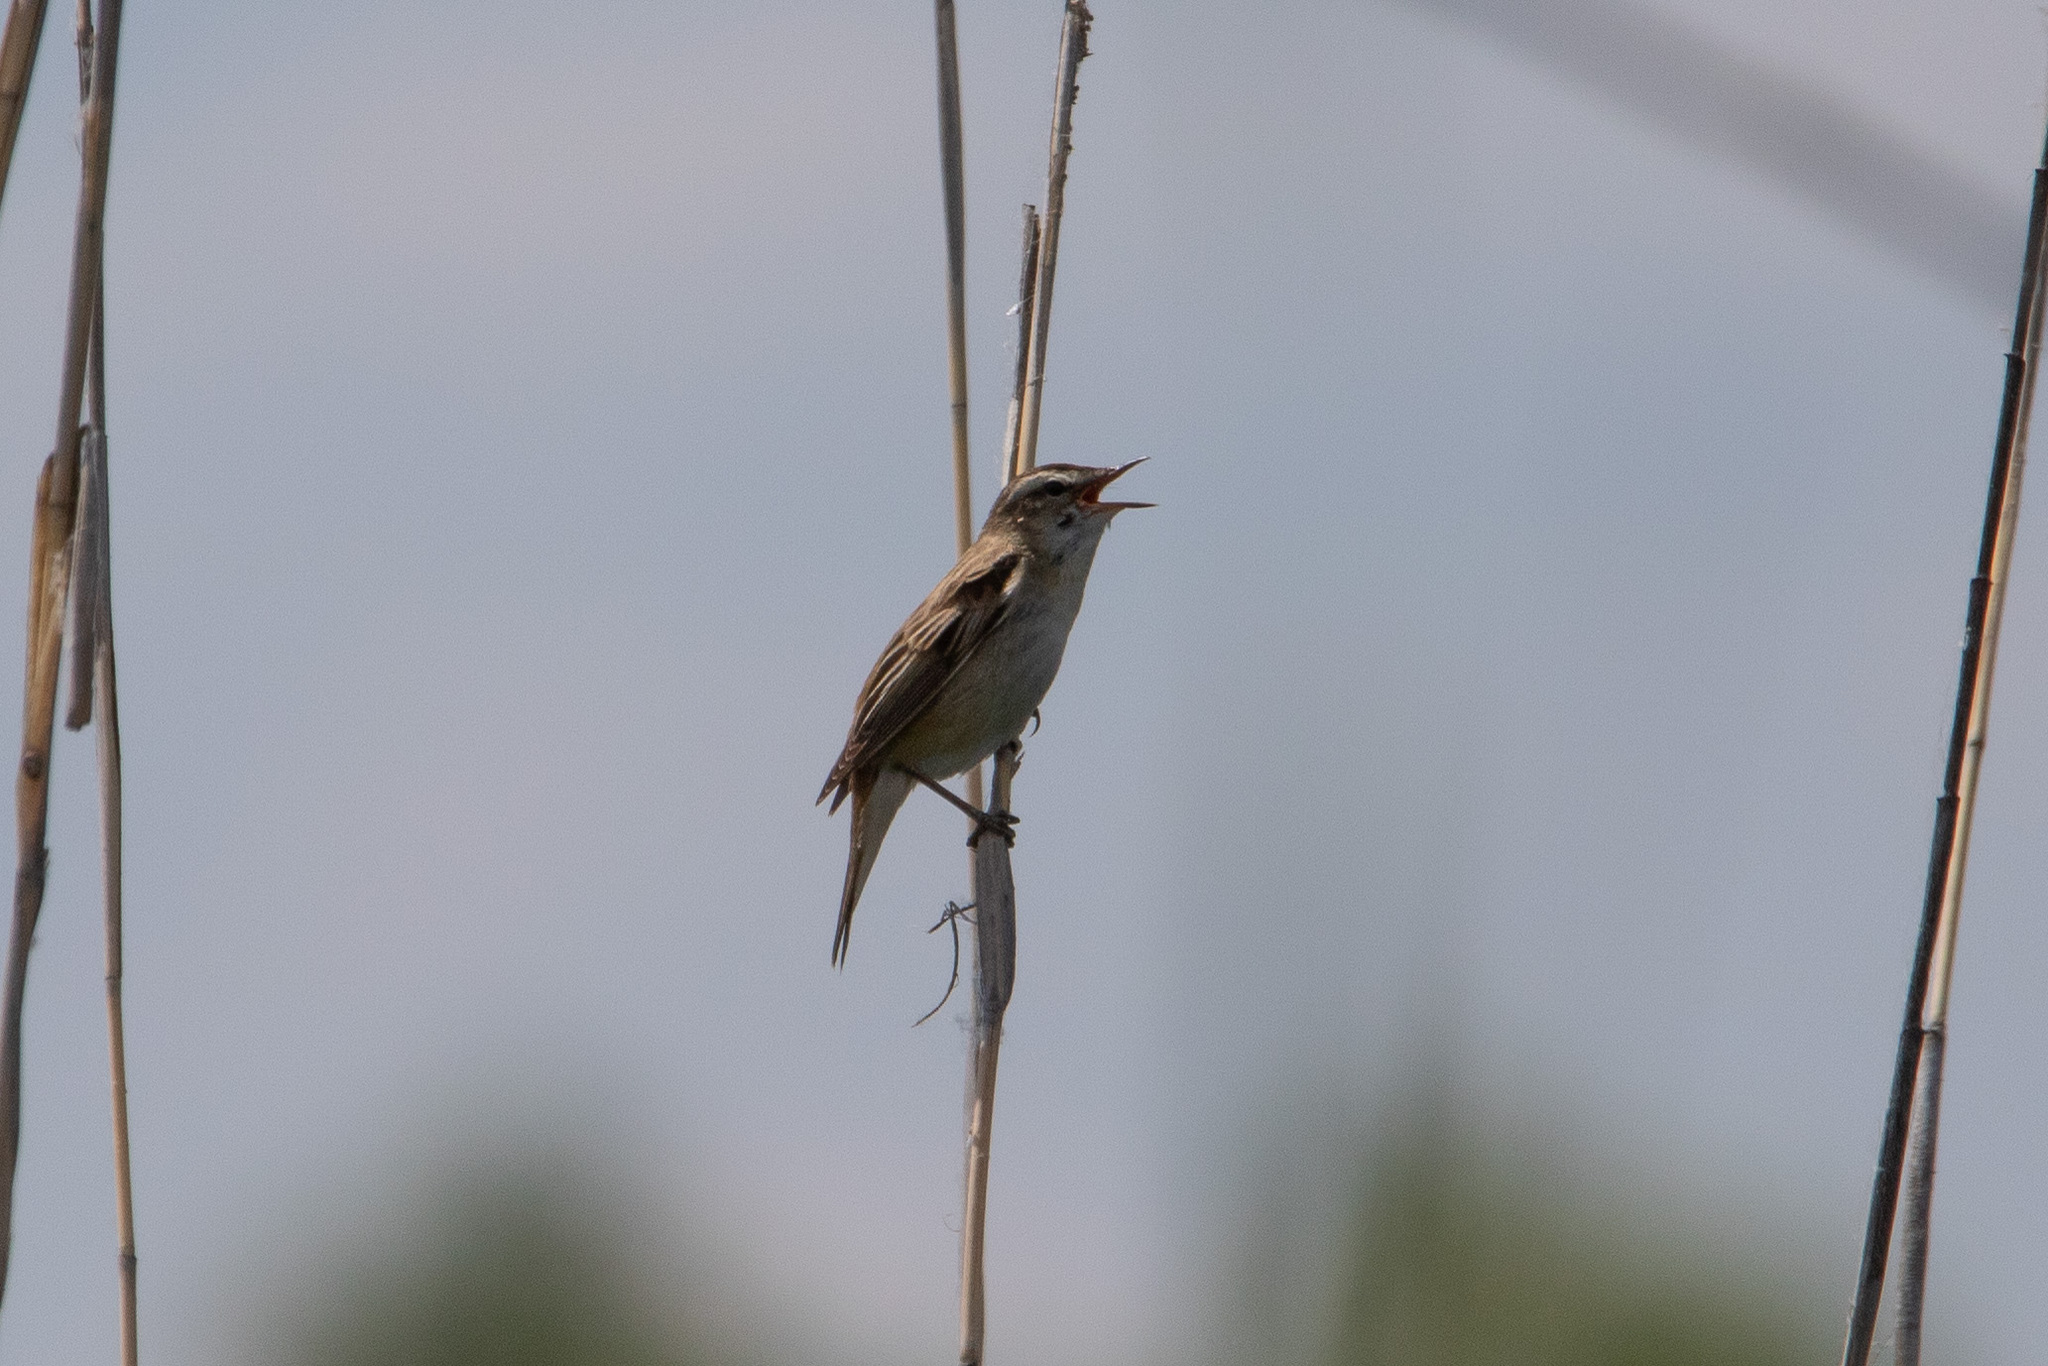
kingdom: Animalia
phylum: Chordata
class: Aves
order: Passeriformes
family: Acrocephalidae
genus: Acrocephalus
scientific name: Acrocephalus schoenobaenus
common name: Sedge warbler
